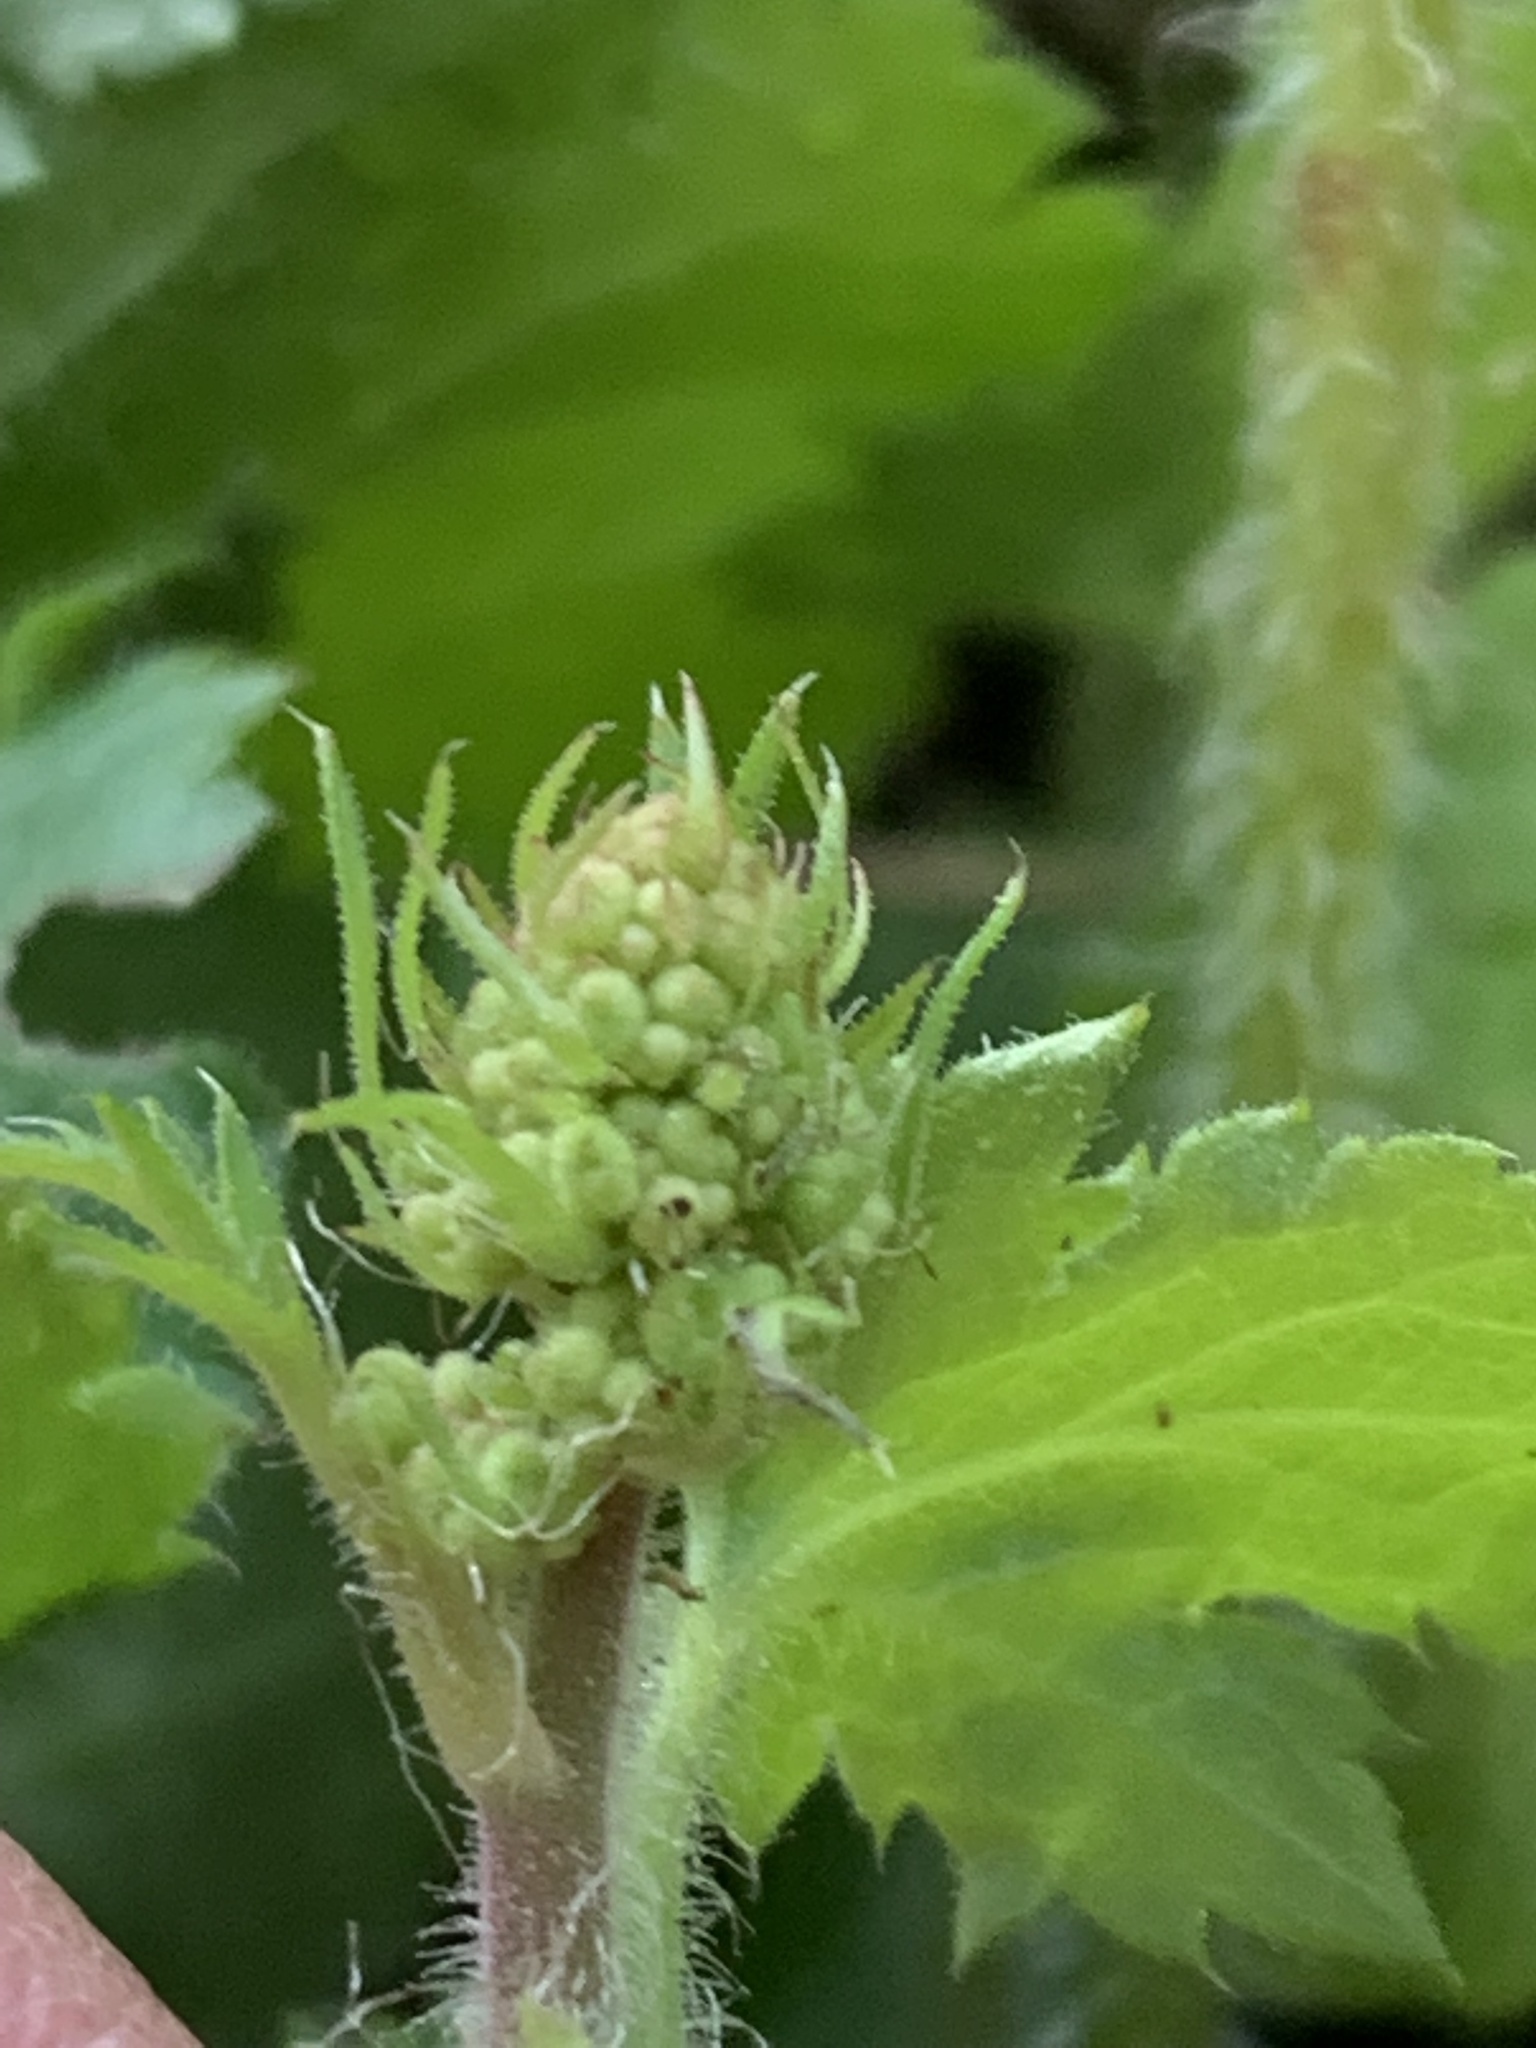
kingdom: Plantae
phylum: Tracheophyta
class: Magnoliopsida
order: Saxifragales
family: Saxifragaceae
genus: Heuchera
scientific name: Heuchera micrantha
